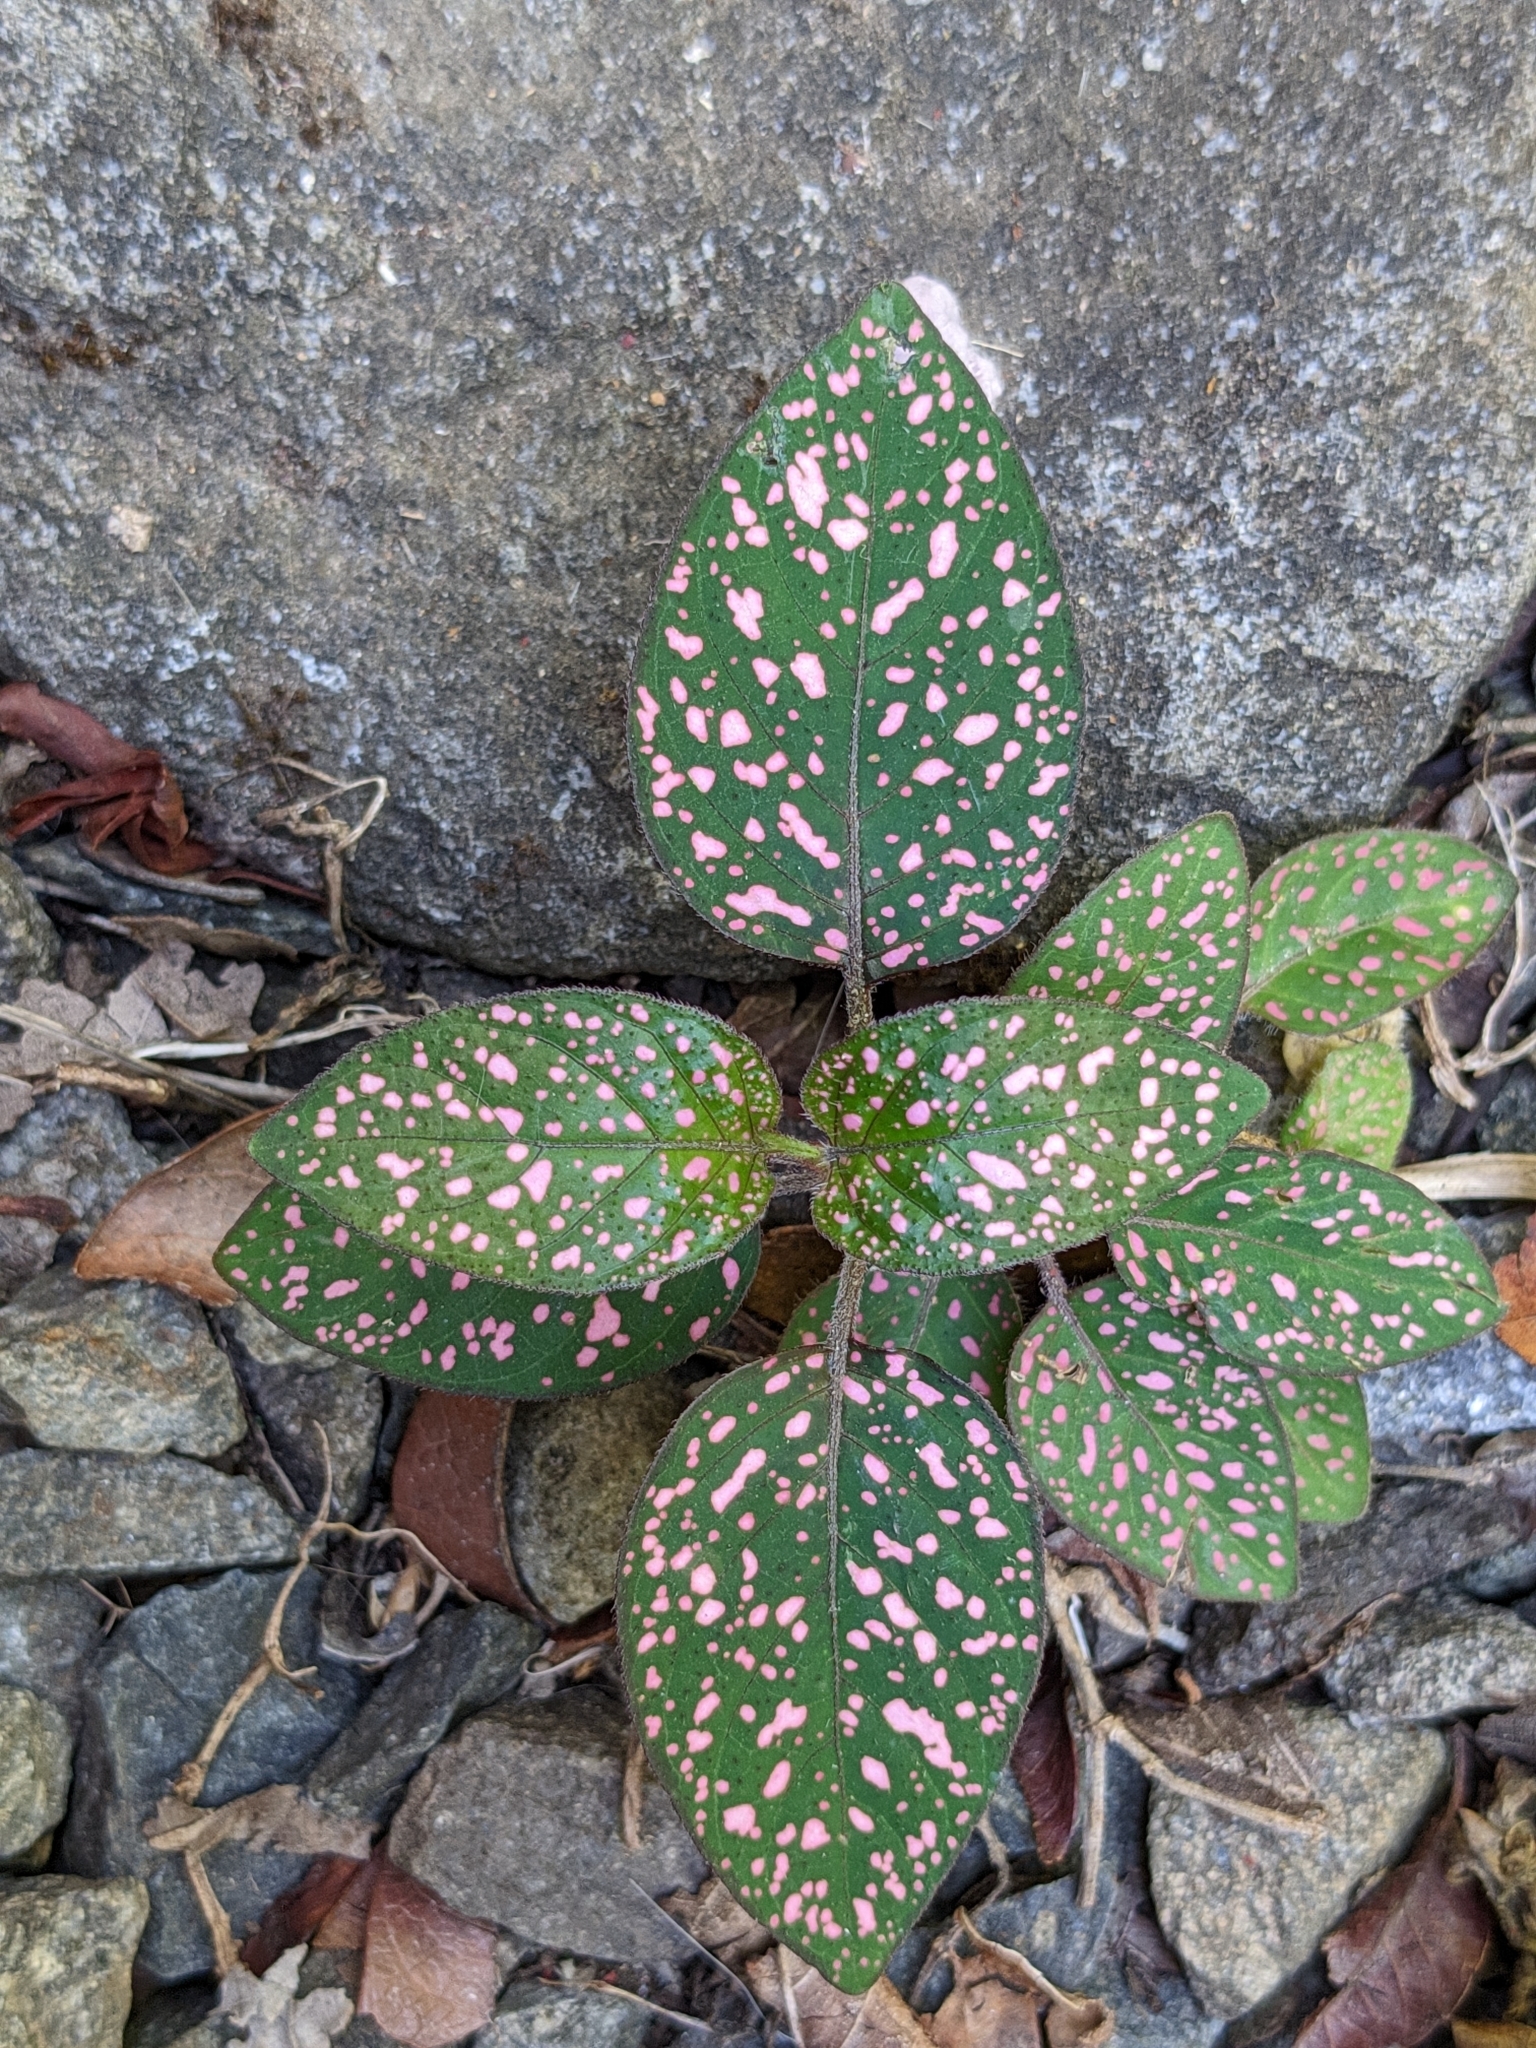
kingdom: Plantae
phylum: Tracheophyta
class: Magnoliopsida
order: Lamiales
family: Acanthaceae
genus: Hypoestes
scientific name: Hypoestes phyllostachya
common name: Polkadot-plant
